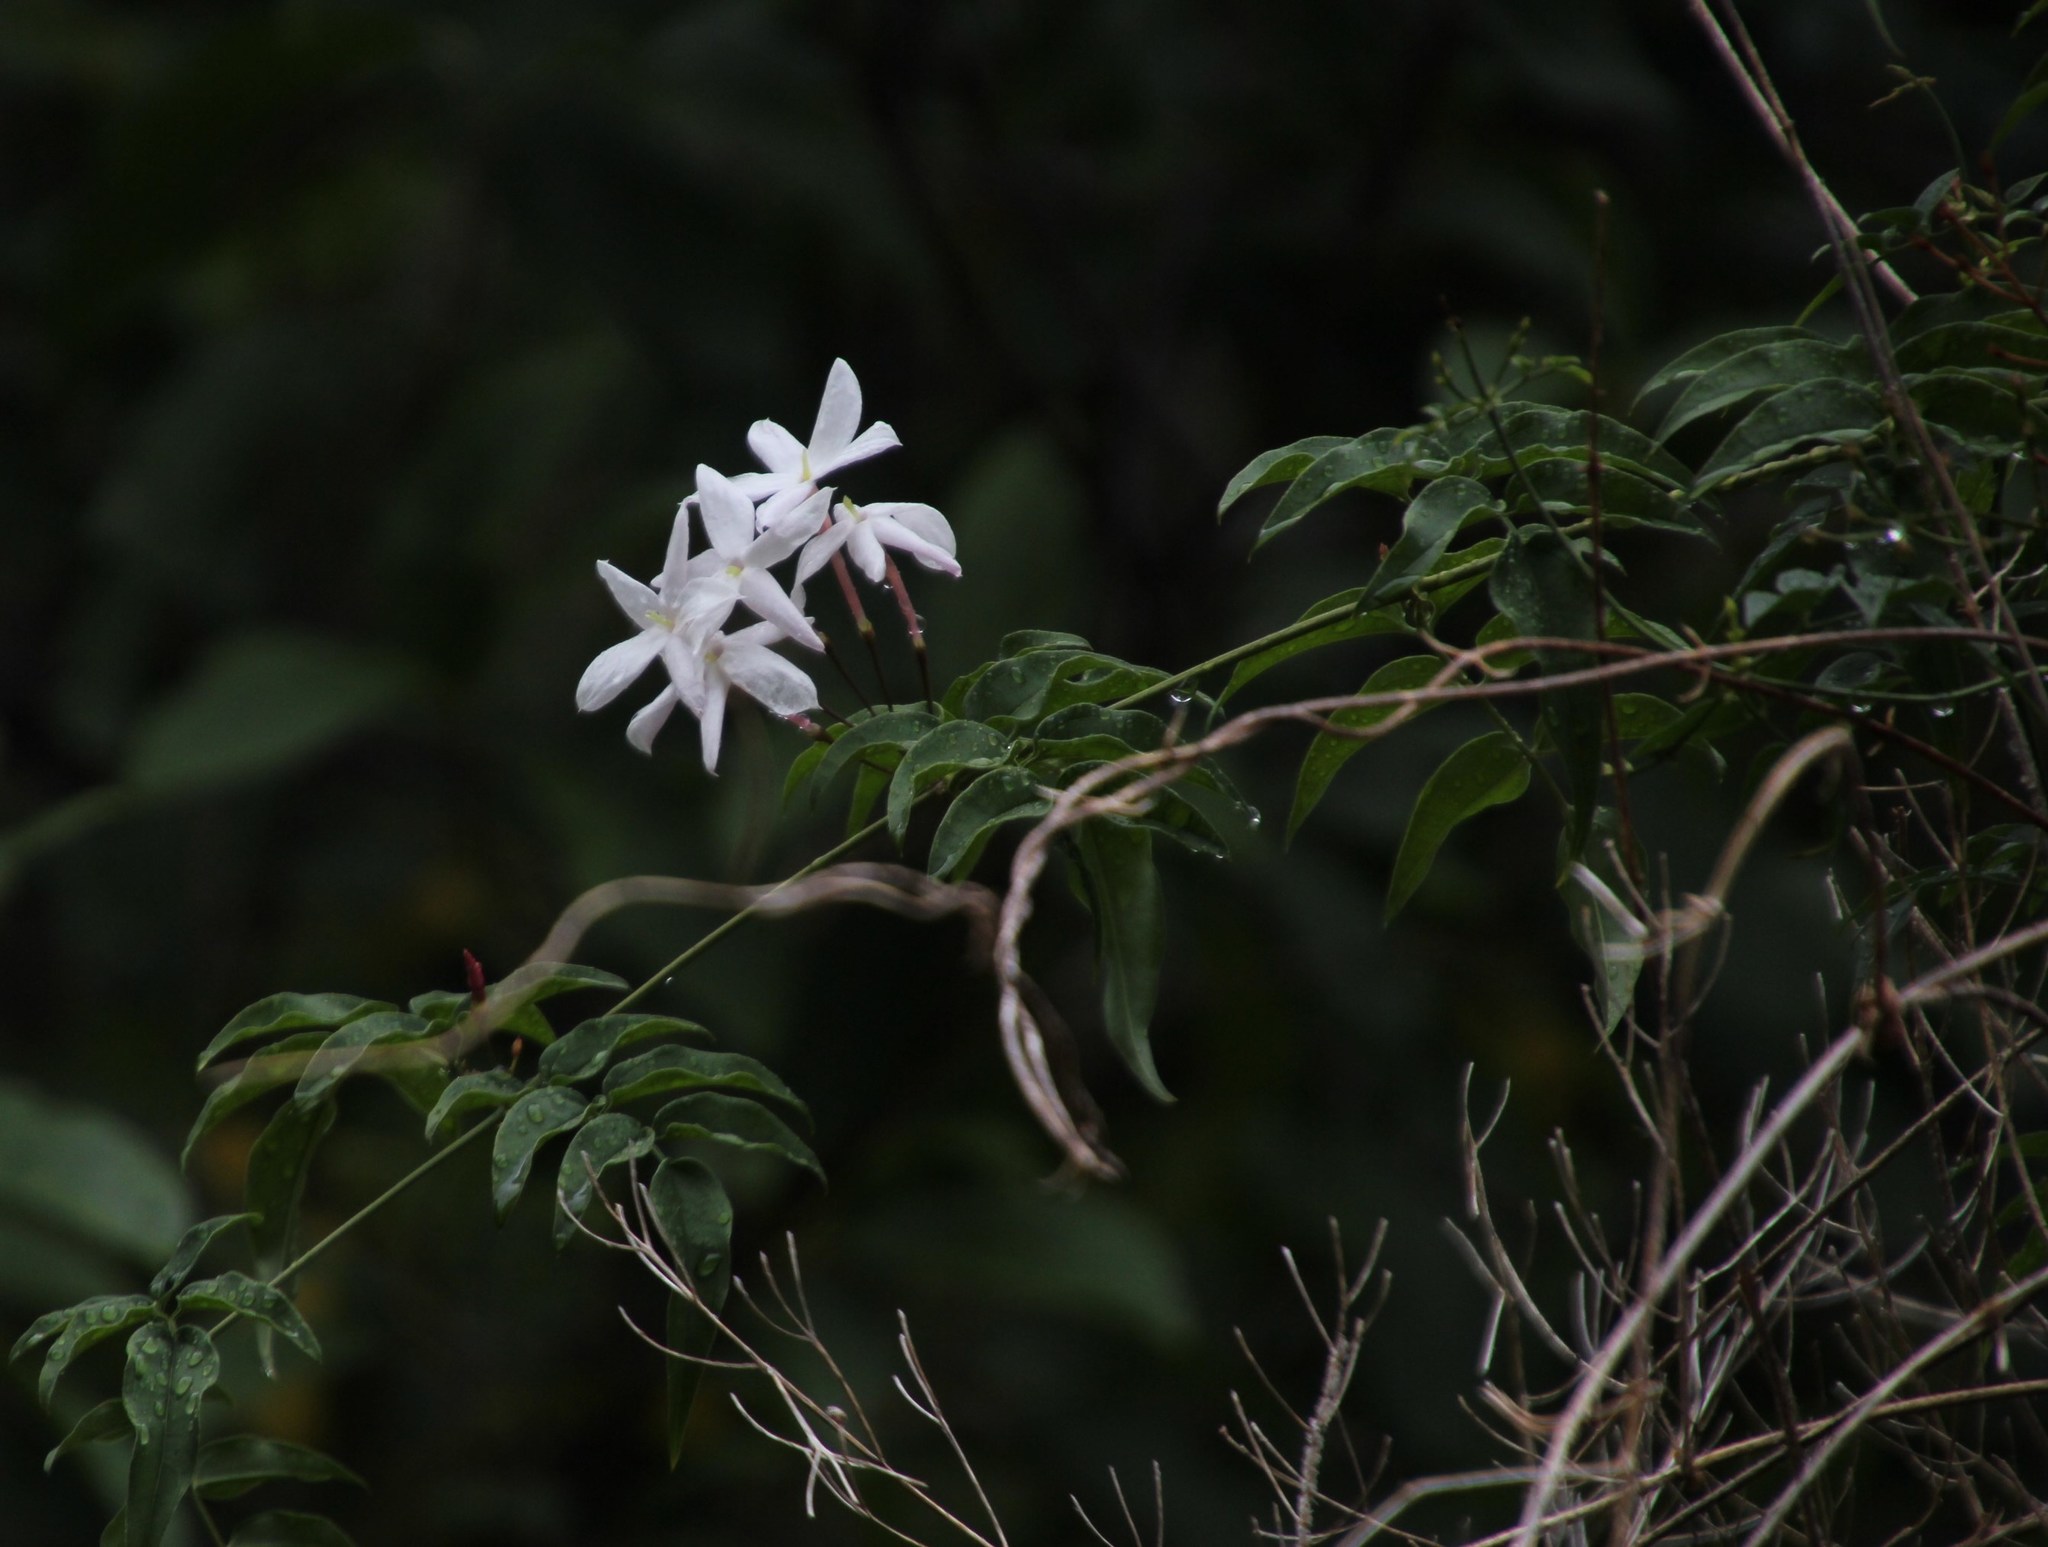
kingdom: Plantae
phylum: Tracheophyta
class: Magnoliopsida
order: Lamiales
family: Oleaceae
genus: Jasminum
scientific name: Jasminum polyanthum
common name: Pink jasmine
